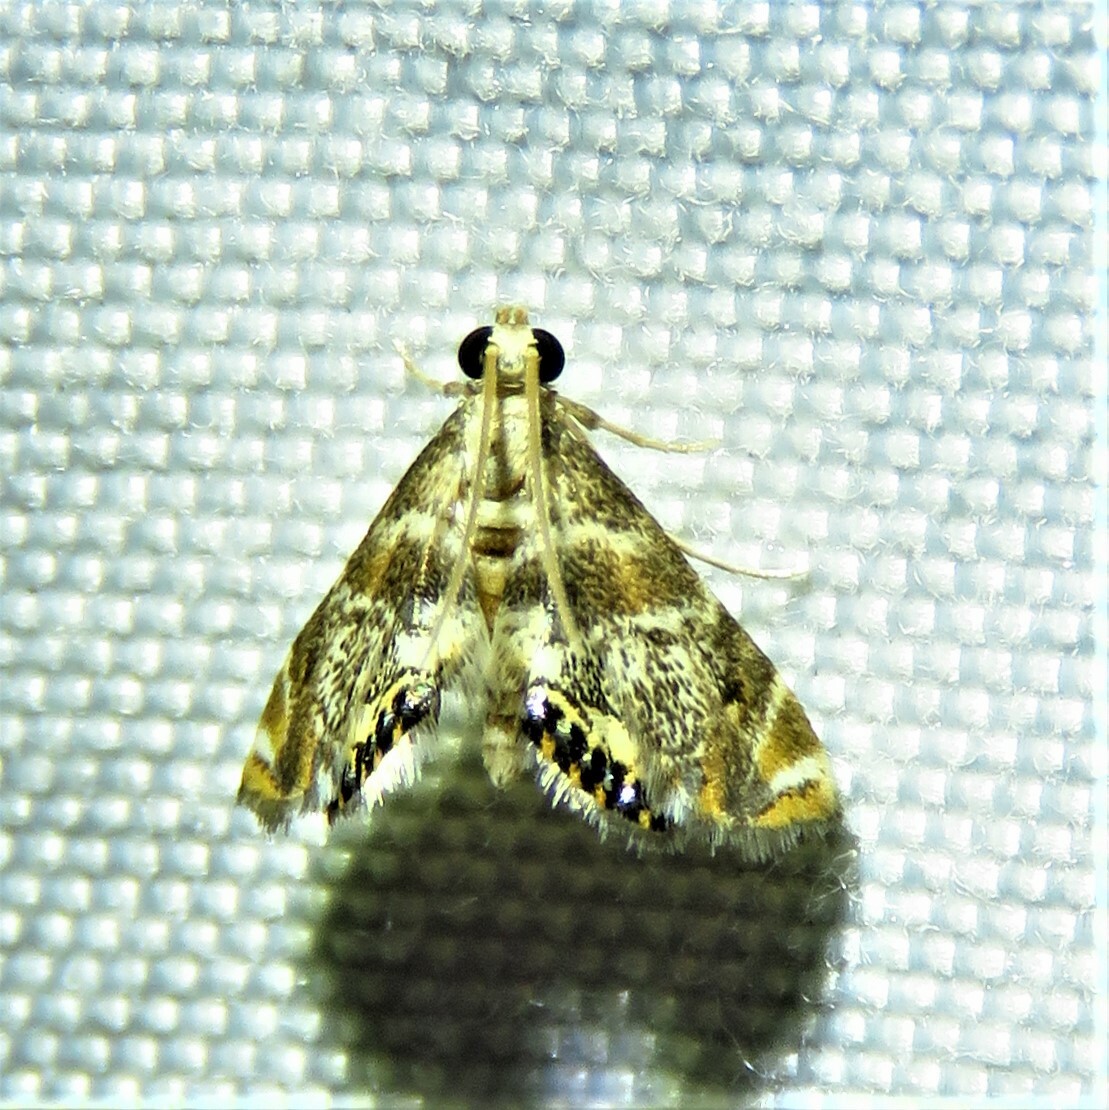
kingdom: Animalia
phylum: Arthropoda
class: Insecta
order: Lepidoptera
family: Crambidae
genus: Petrophila
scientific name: Petrophila fulicalis
